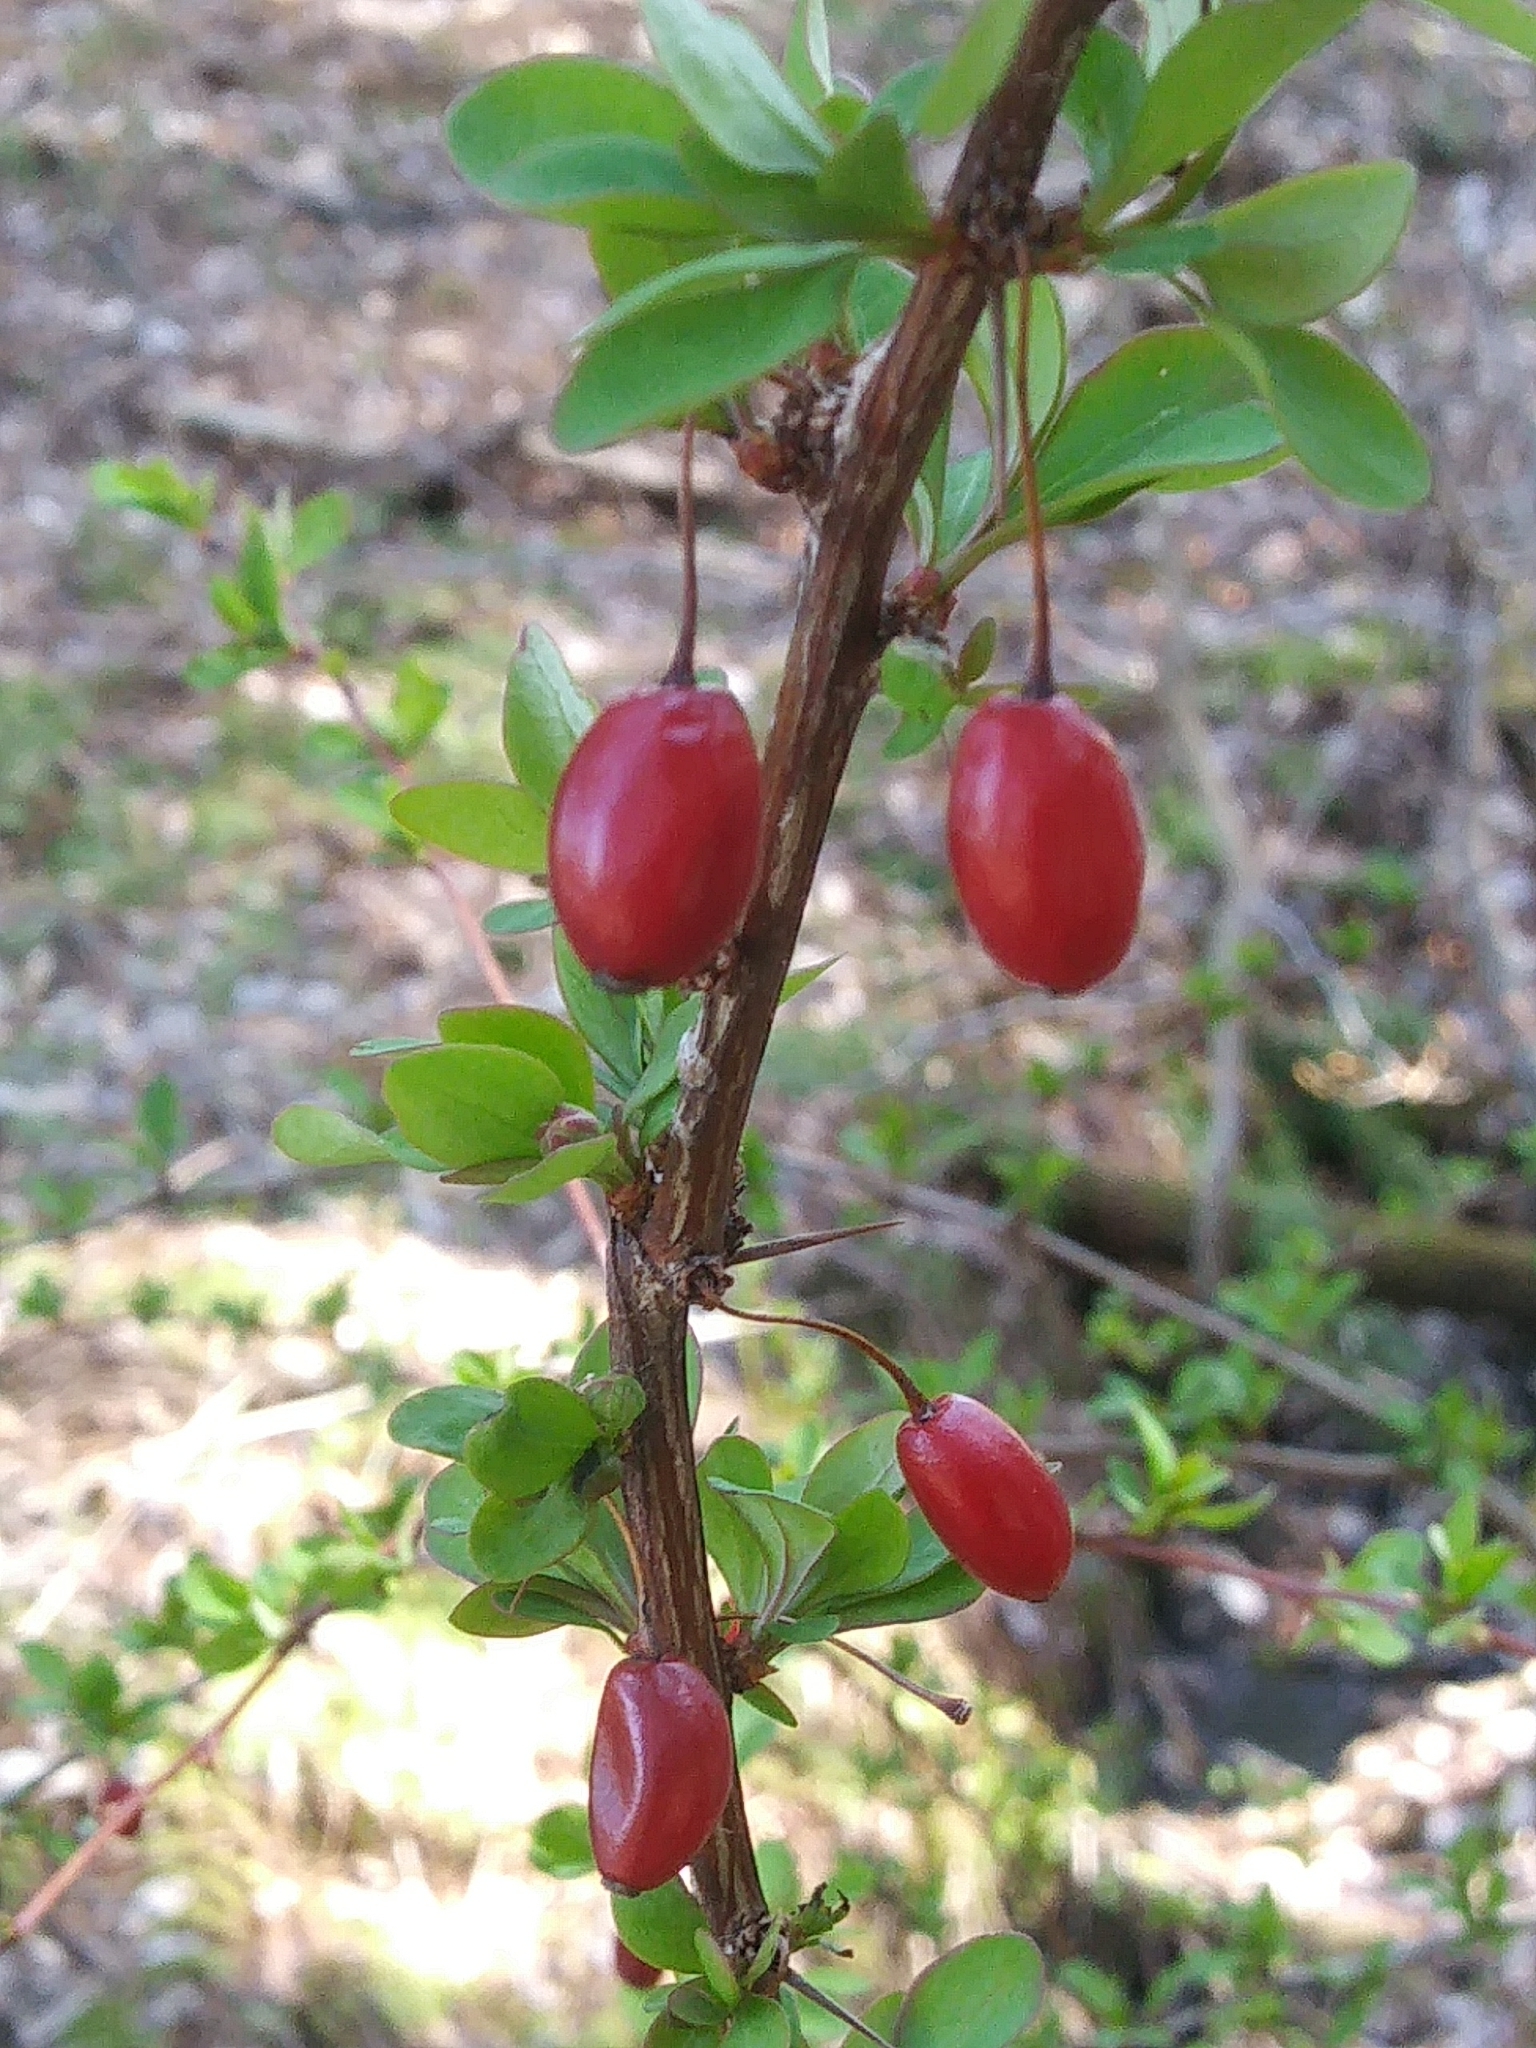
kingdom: Plantae
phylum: Tracheophyta
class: Magnoliopsida
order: Ranunculales
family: Berberidaceae
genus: Berberis
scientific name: Berberis thunbergii
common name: Japanese barberry
